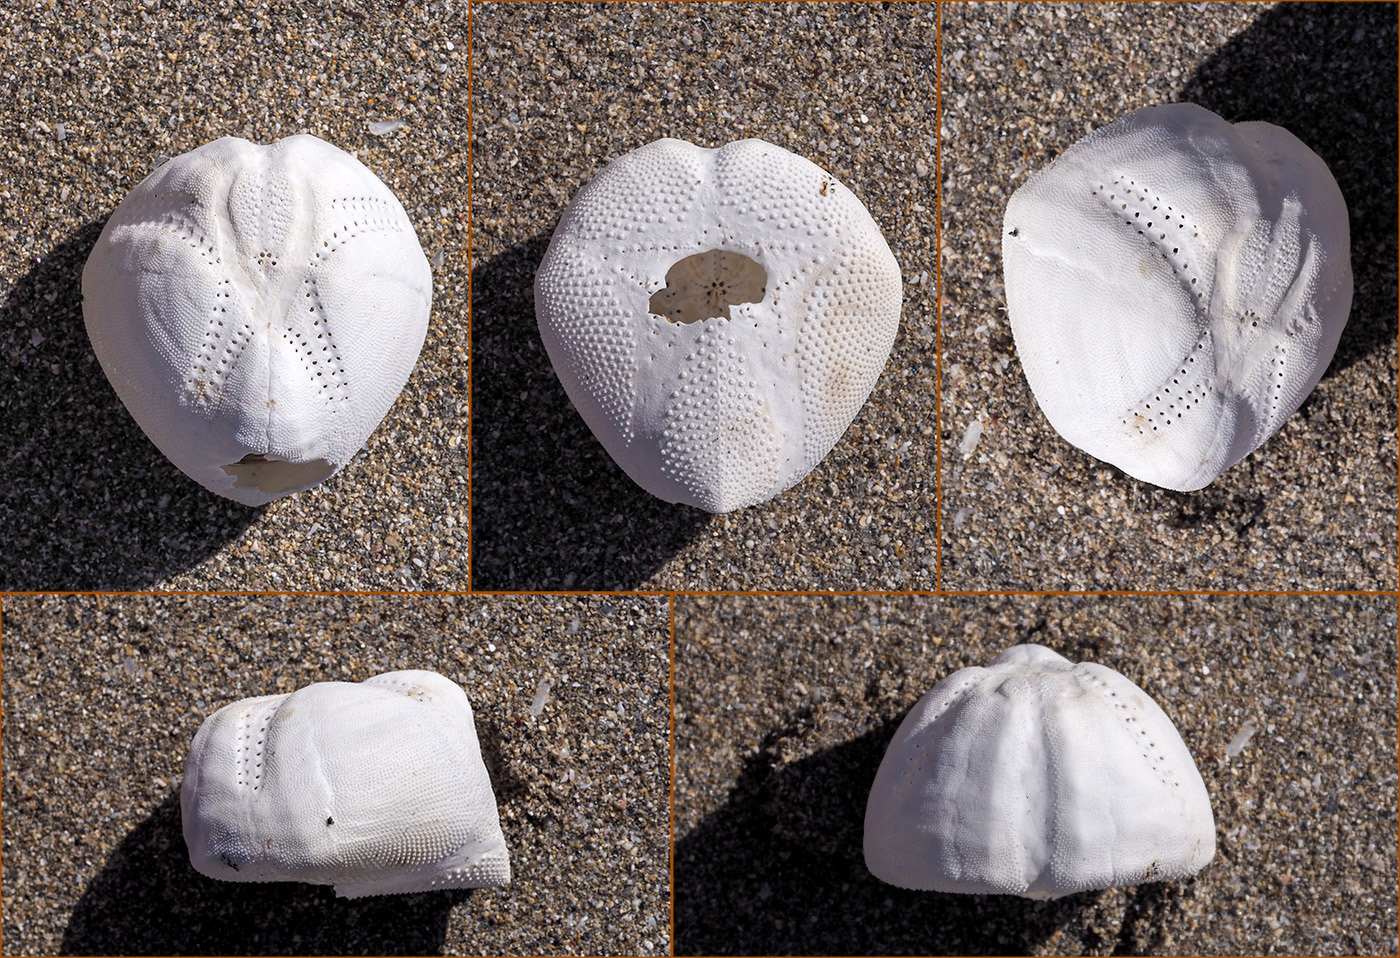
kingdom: Animalia
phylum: Echinodermata
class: Echinoidea
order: Spatangoida
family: Loveniidae
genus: Echinocardium
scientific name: Echinocardium mediterraneum
